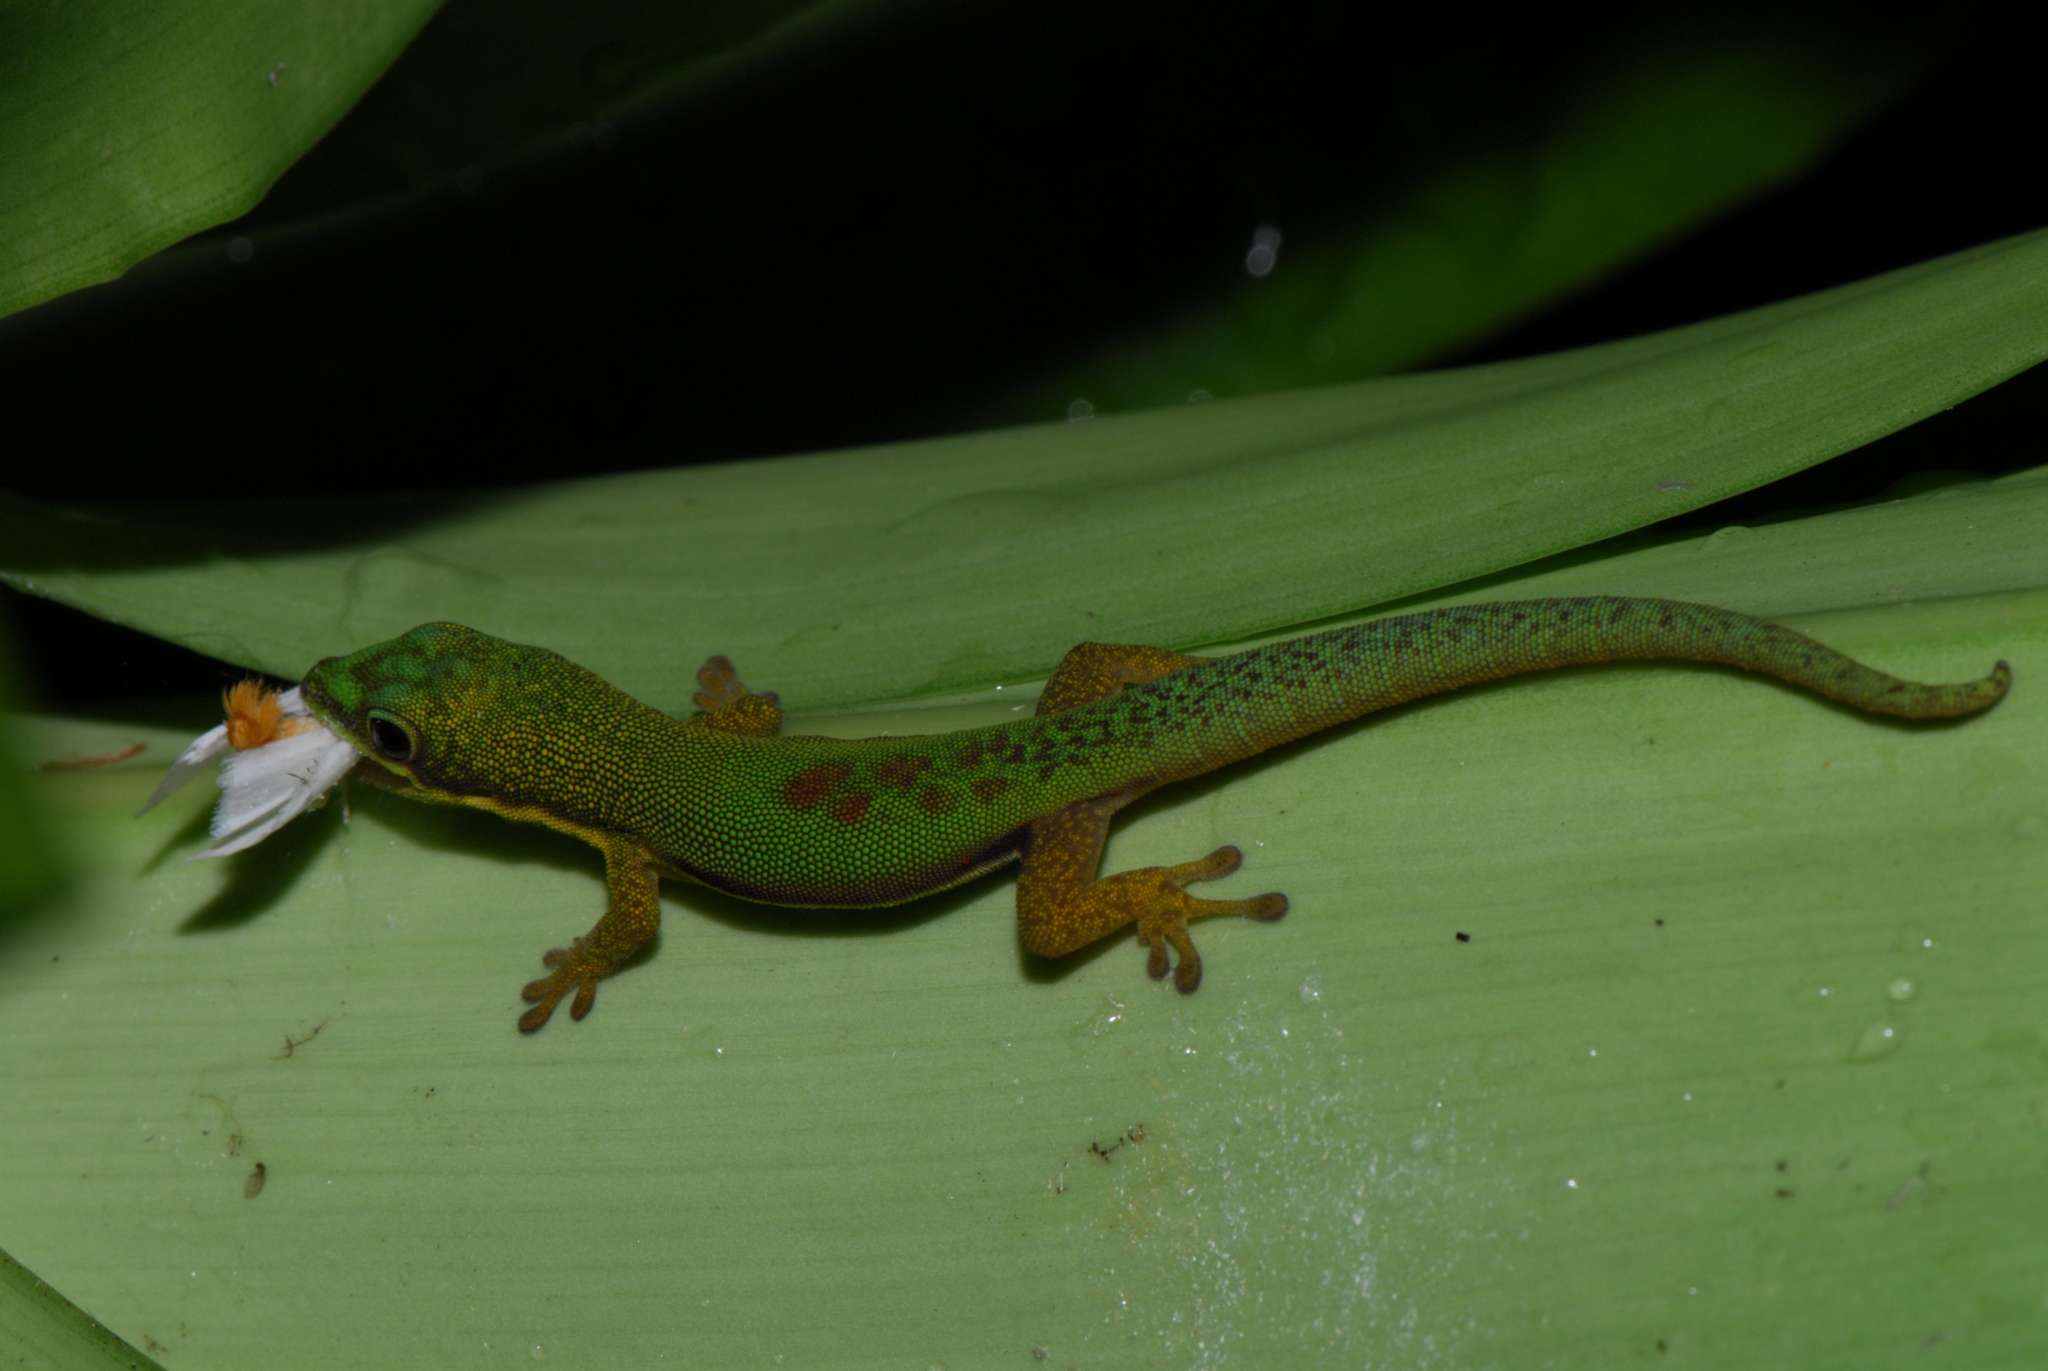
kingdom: Animalia
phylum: Chordata
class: Squamata
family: Gekkonidae
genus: Phelsuma
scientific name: Phelsuma lineata
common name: Lined day gecko
